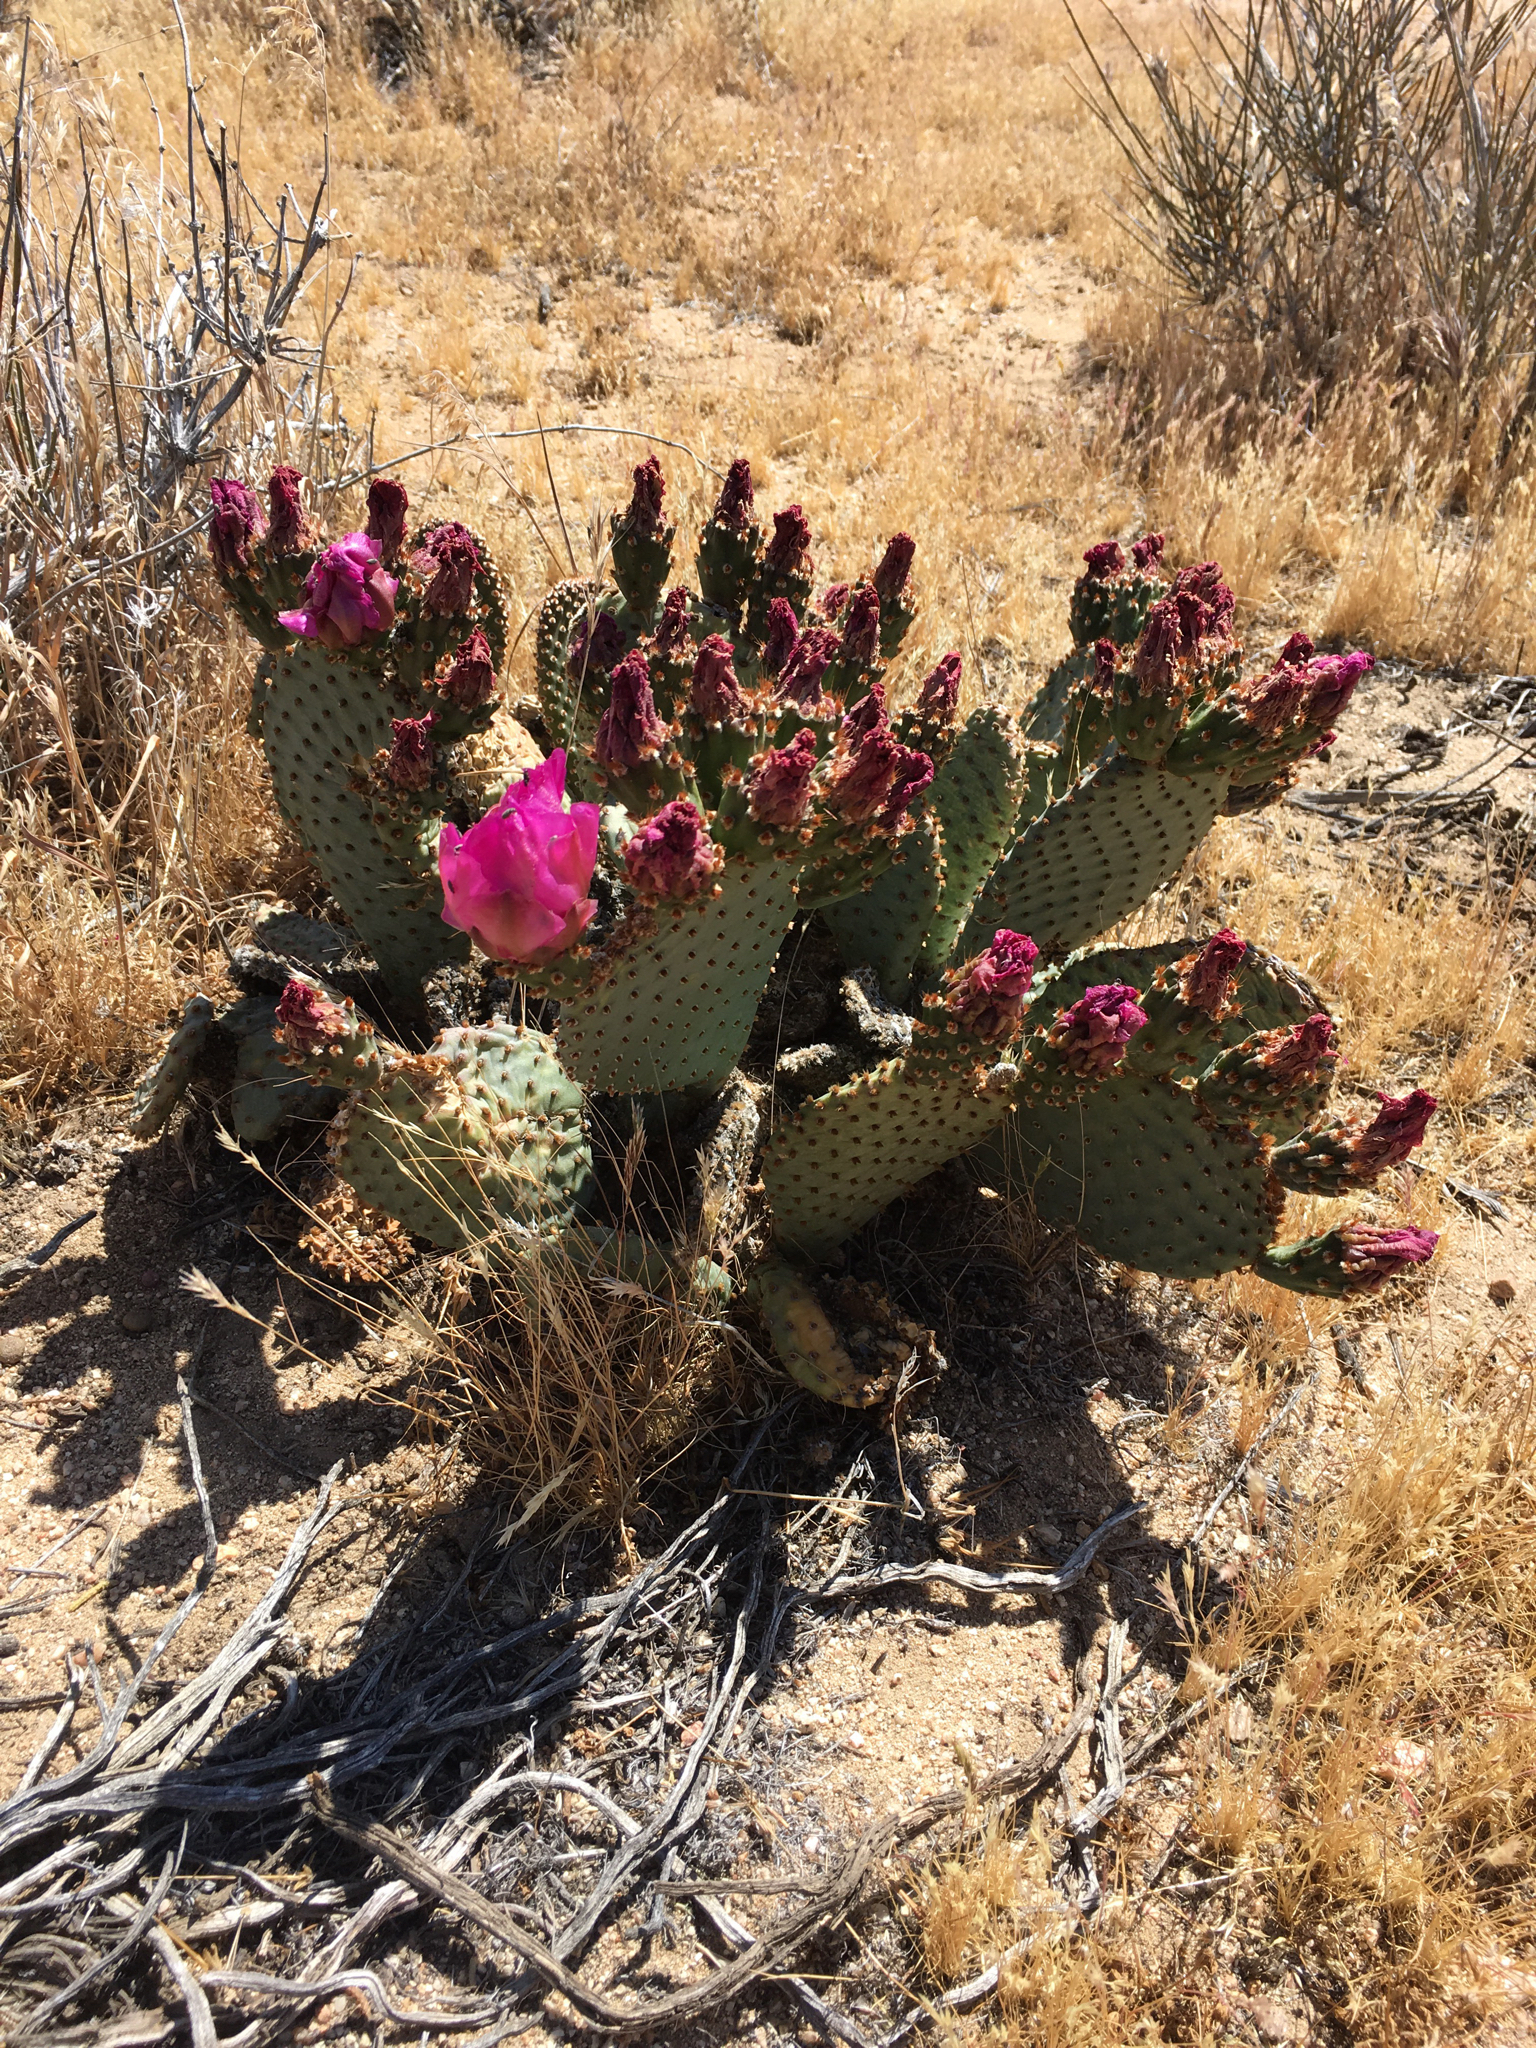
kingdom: Plantae
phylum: Tracheophyta
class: Magnoliopsida
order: Caryophyllales
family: Cactaceae
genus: Opuntia
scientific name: Opuntia basilaris
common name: Beavertail prickly-pear
